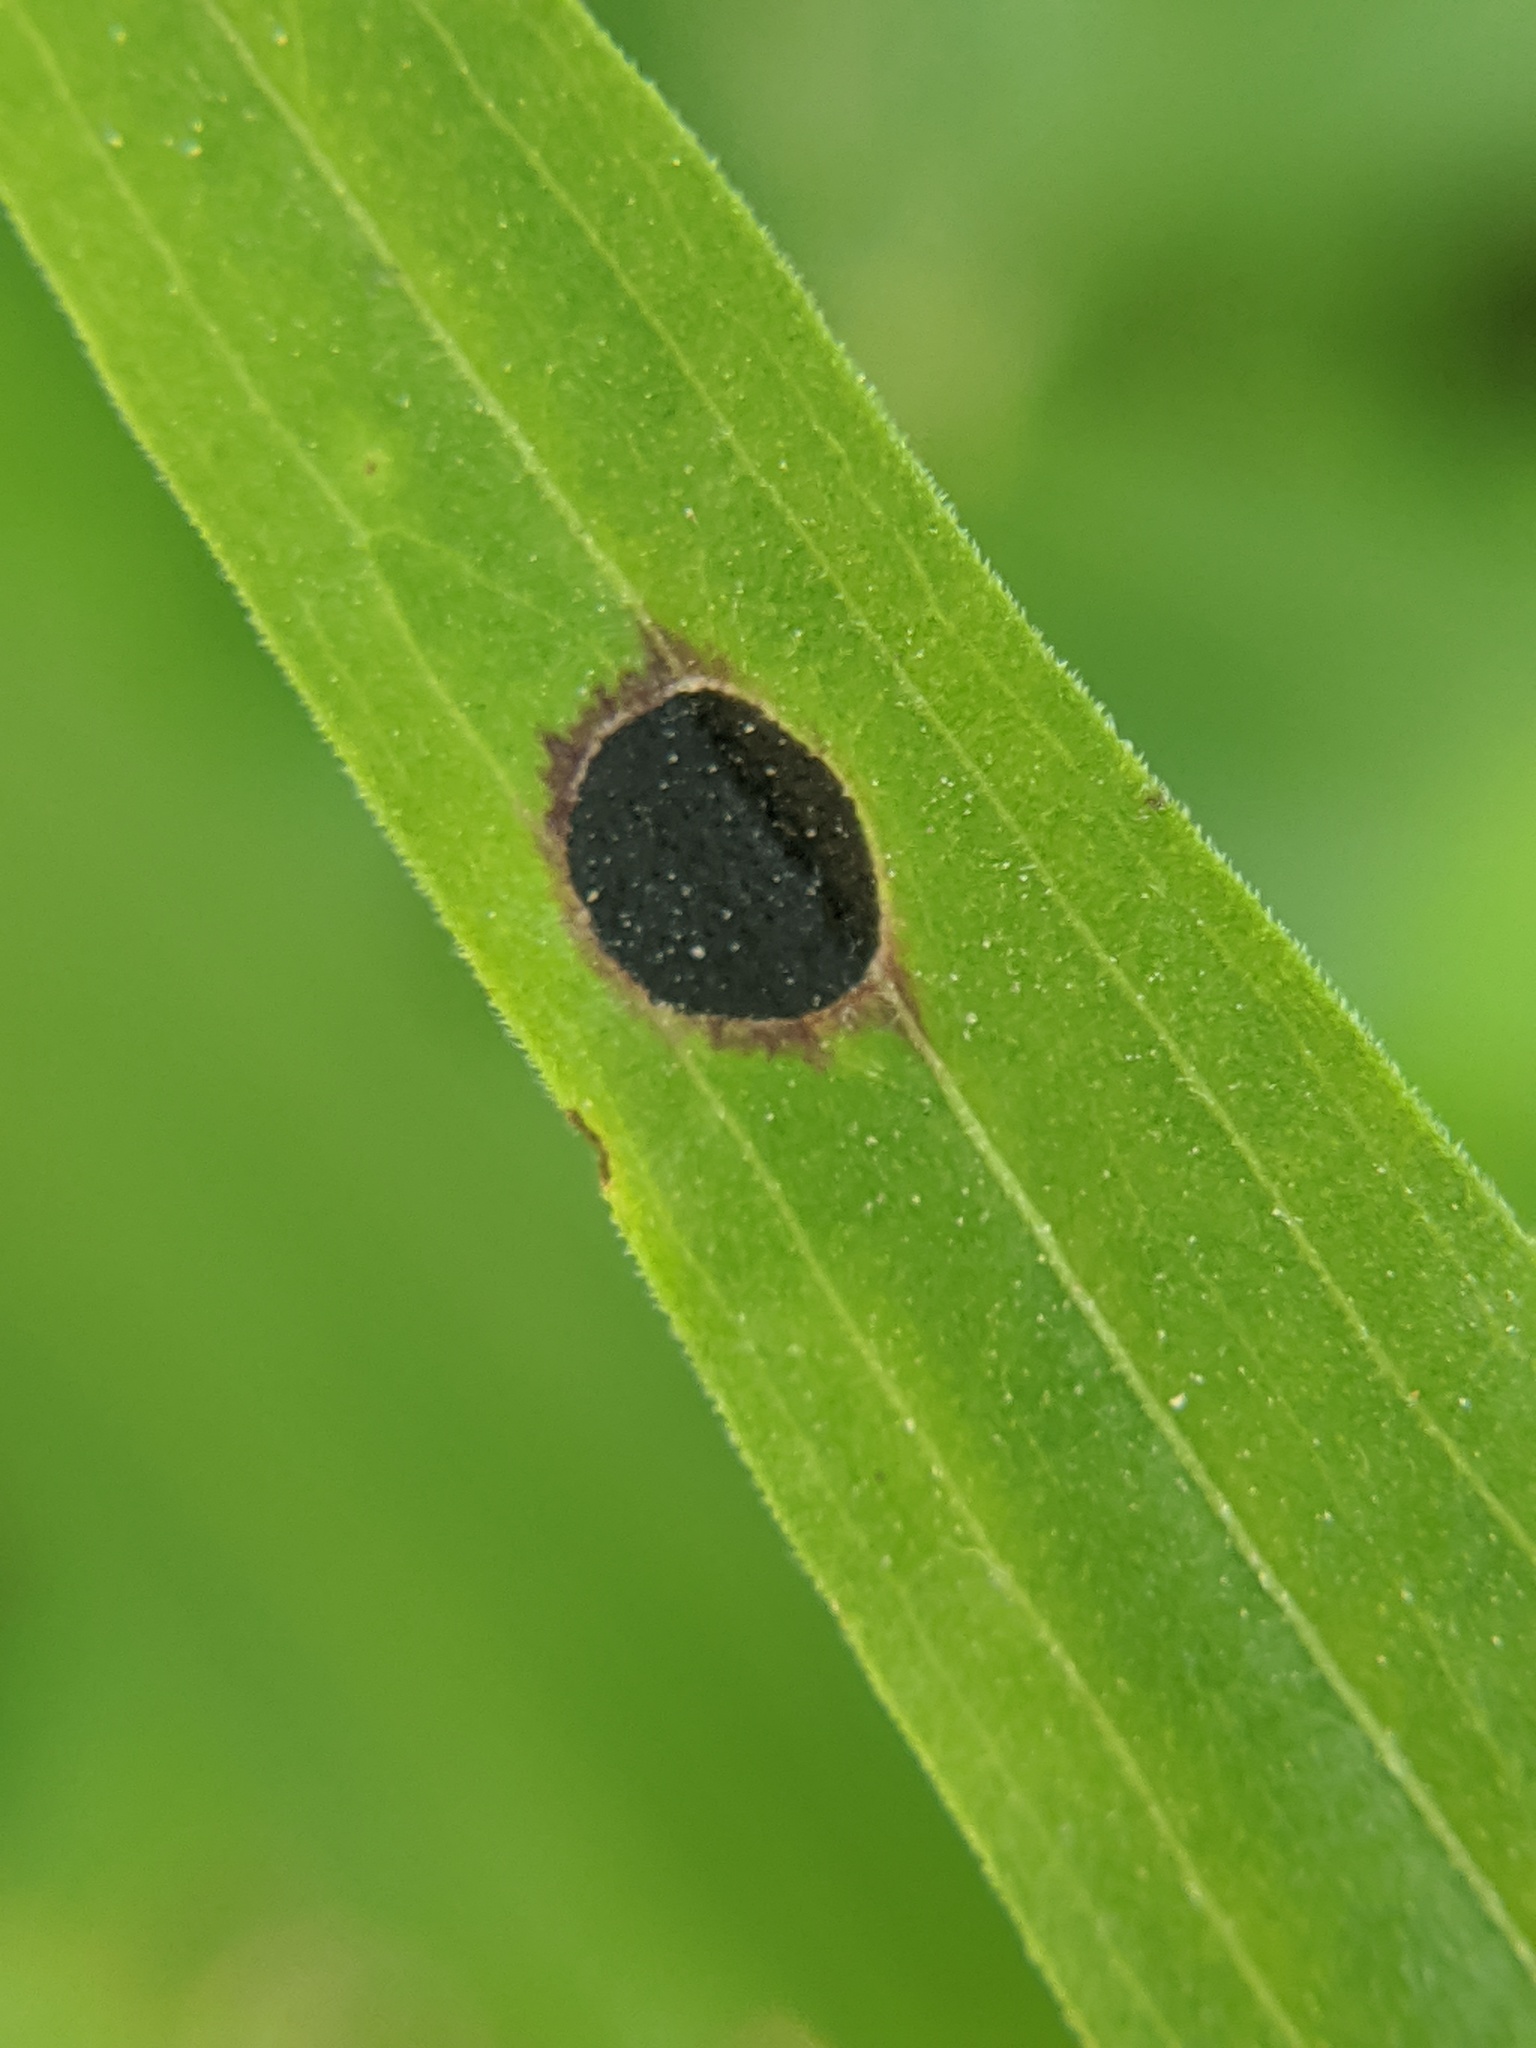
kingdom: Animalia
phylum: Arthropoda
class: Insecta
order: Diptera
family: Cecidomyiidae
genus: Asteromyia
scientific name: Asteromyia euthamiae
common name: Euthamia leaf gall midge
